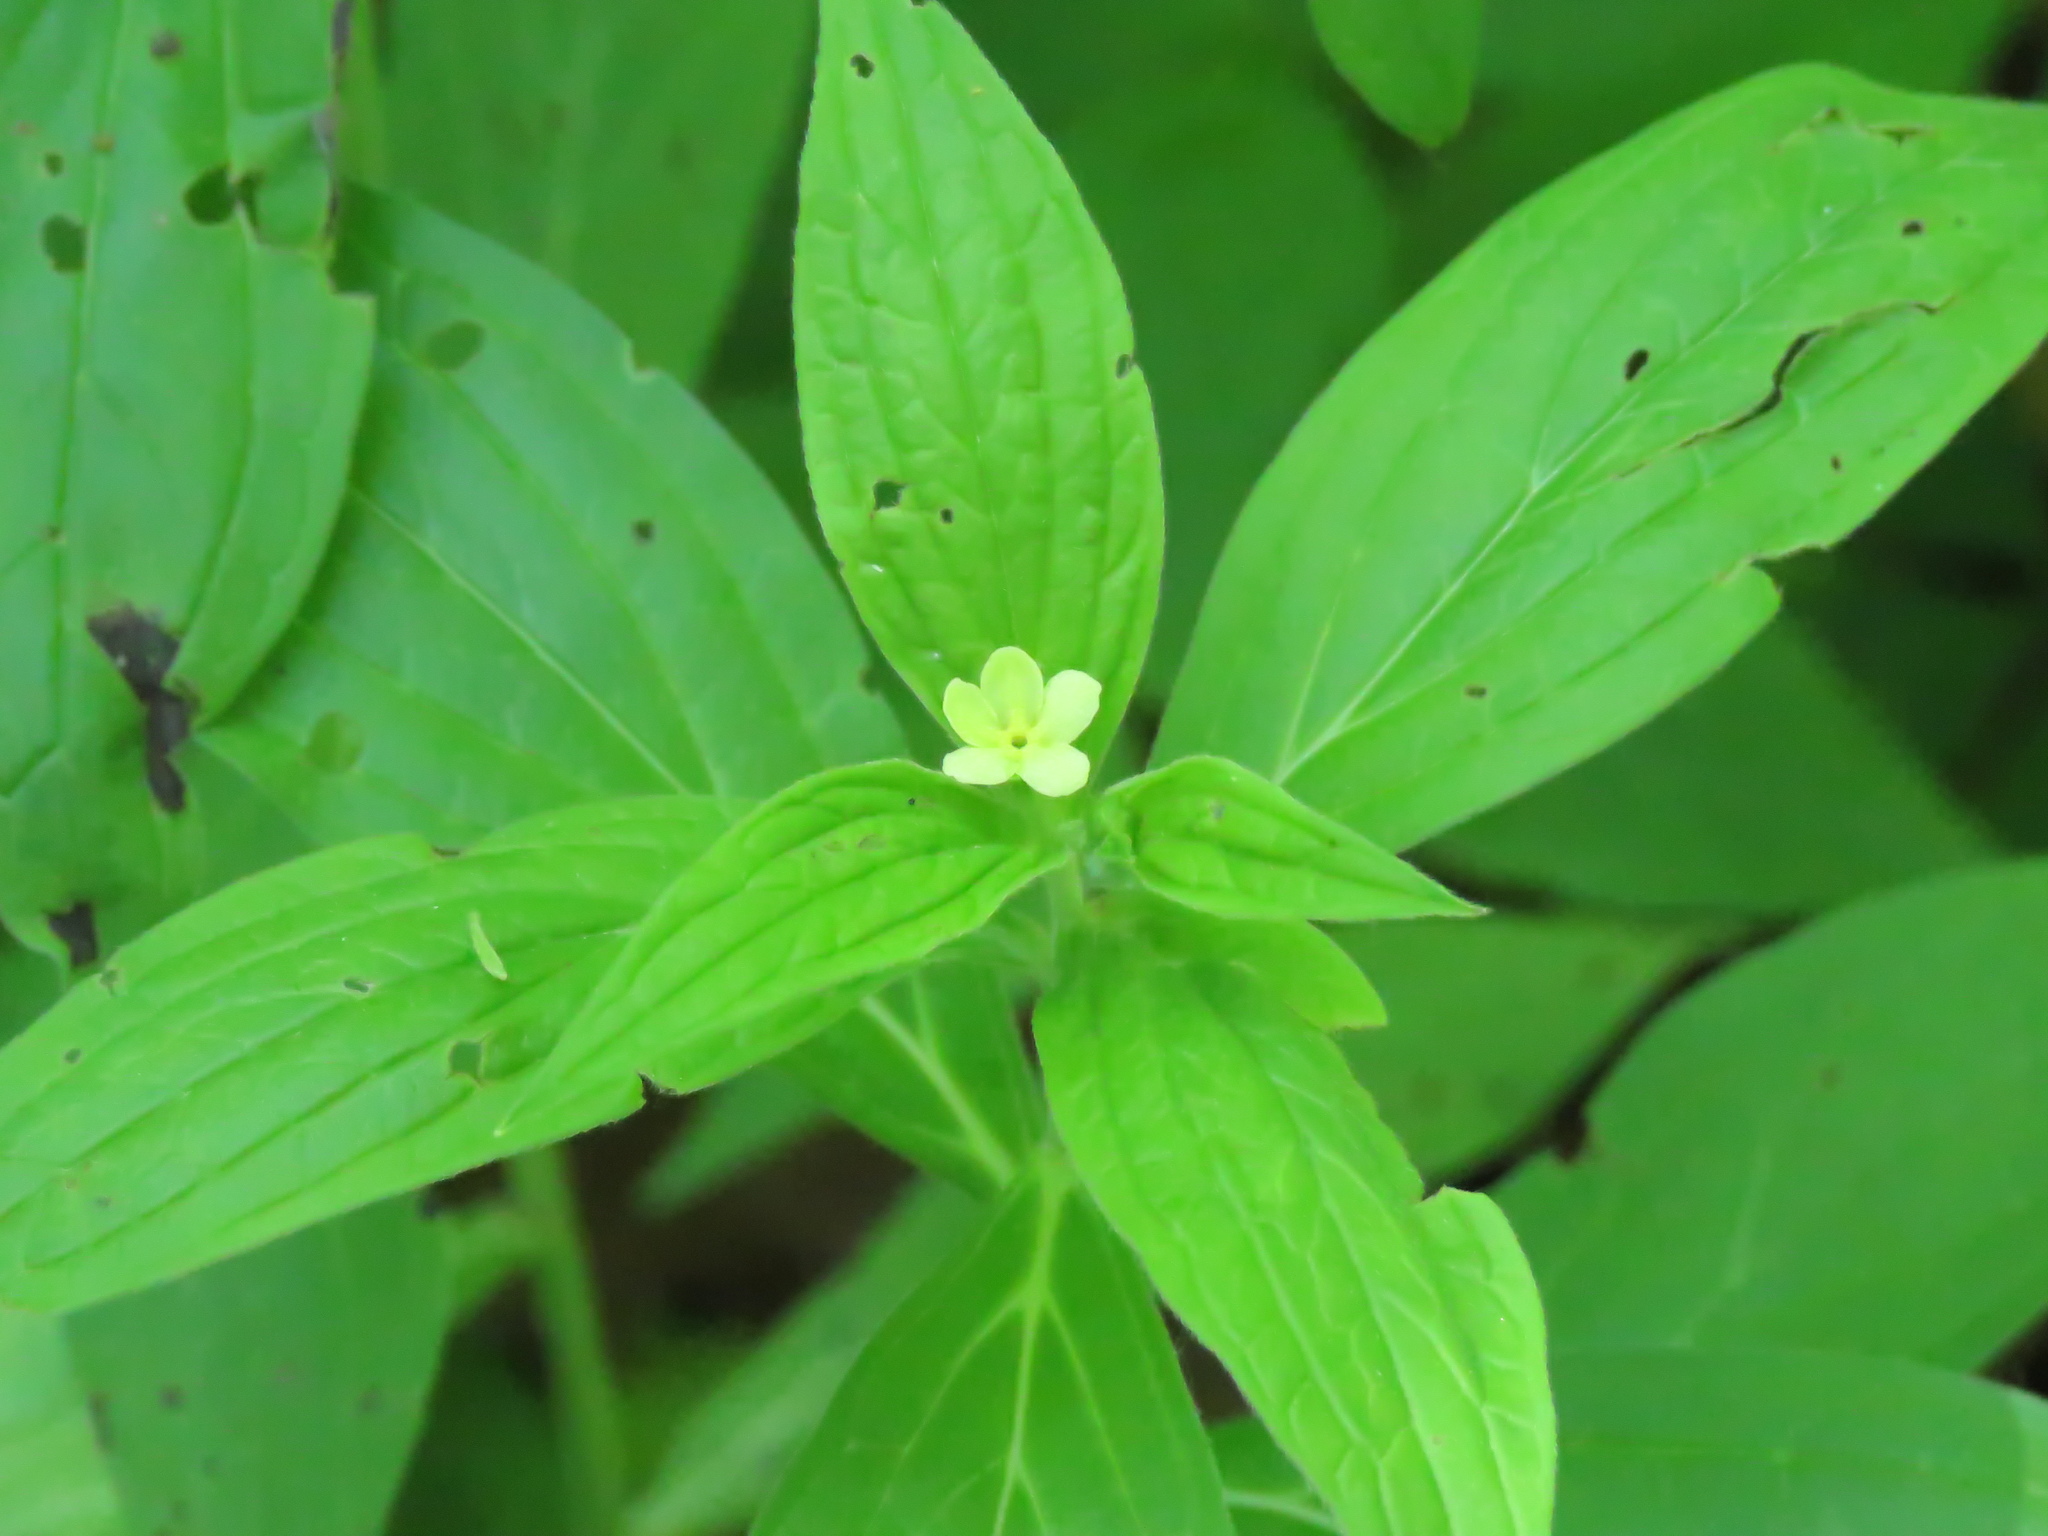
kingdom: Plantae
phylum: Tracheophyta
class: Magnoliopsida
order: Boraginales
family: Boraginaceae
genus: Lithospermum
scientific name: Lithospermum latifolium
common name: American gromwell
